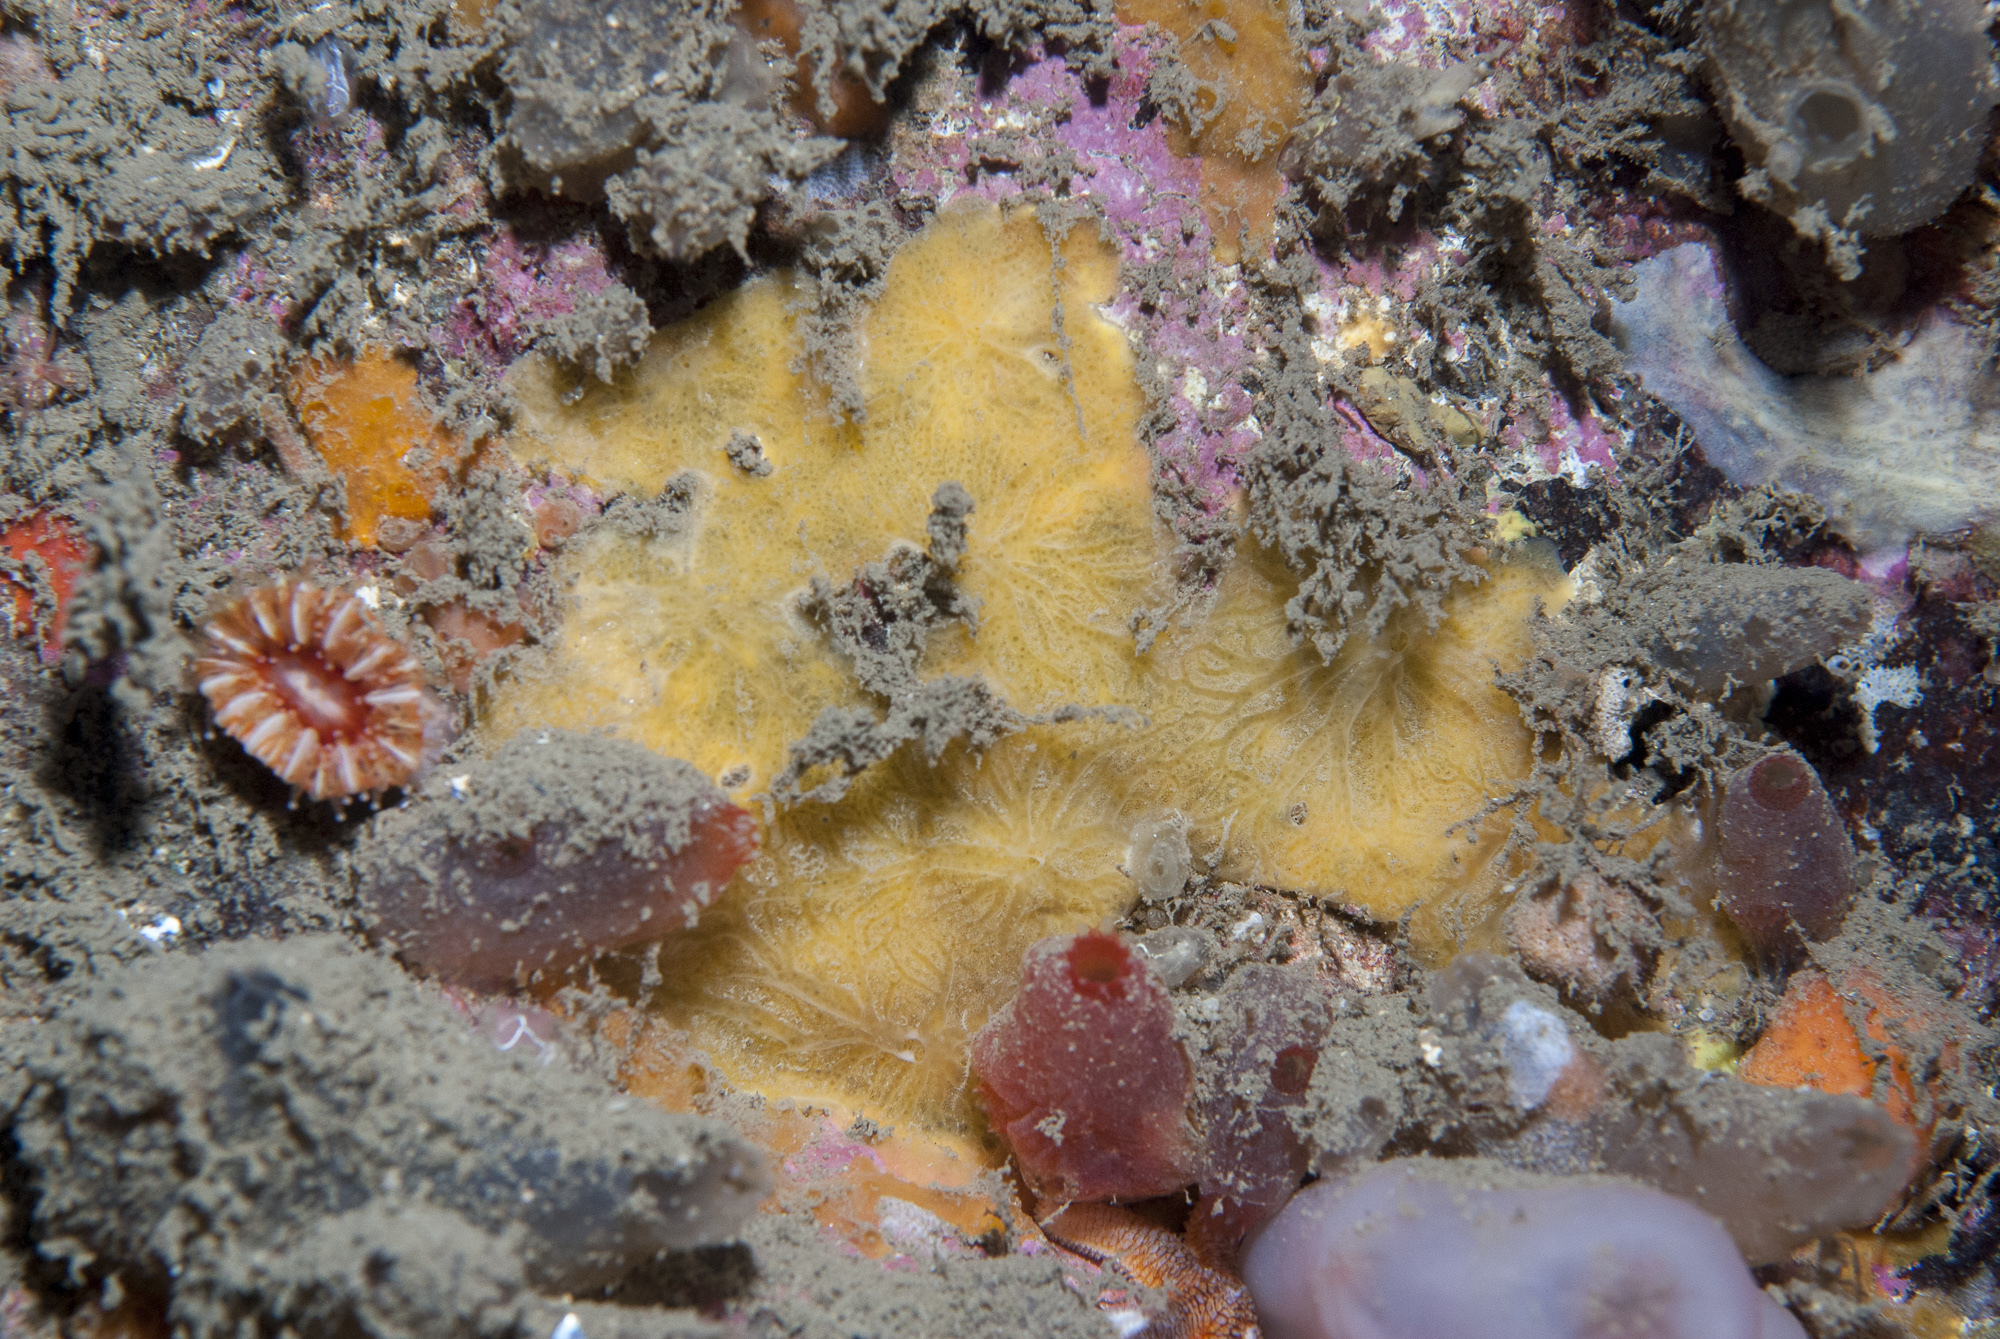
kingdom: Animalia
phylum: Porifera
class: Demospongiae
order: Poecilosclerida
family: Hymedesmiidae
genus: Hymedesmia
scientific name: Hymedesmia stellifera
